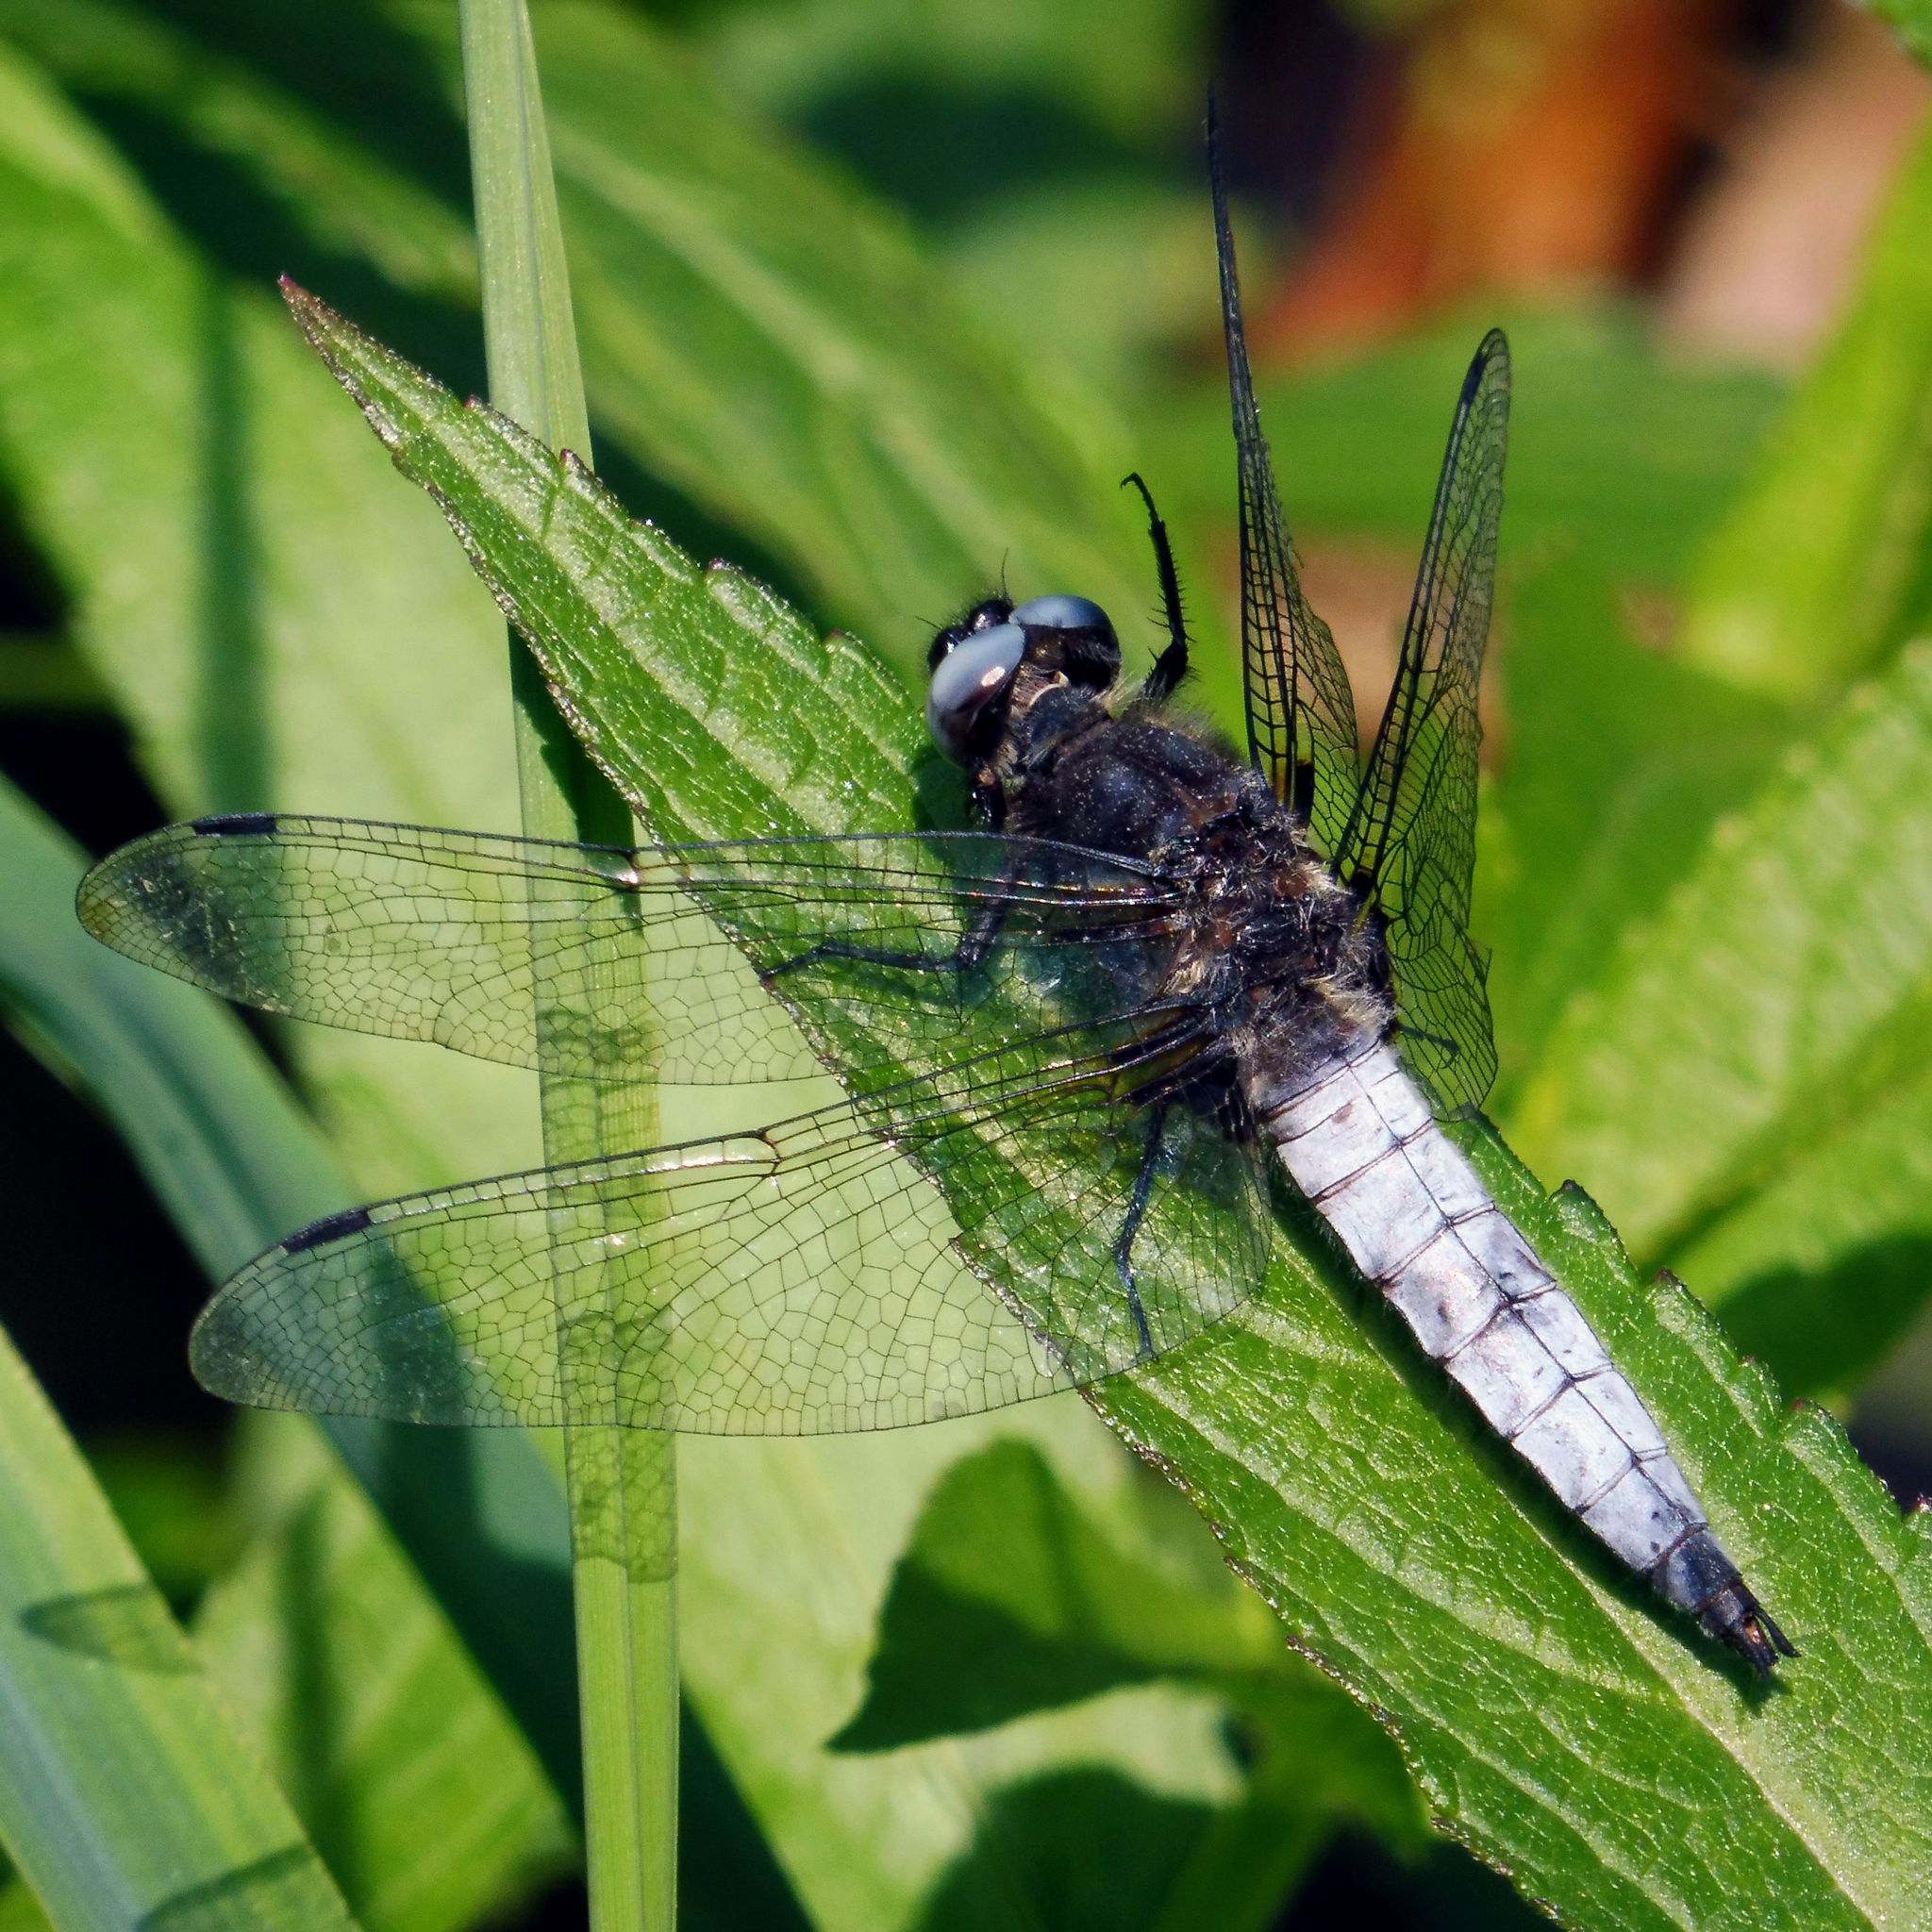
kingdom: Animalia
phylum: Arthropoda
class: Insecta
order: Odonata
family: Libellulidae
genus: Libellula
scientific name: Libellula fulva
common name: Blue chaser
